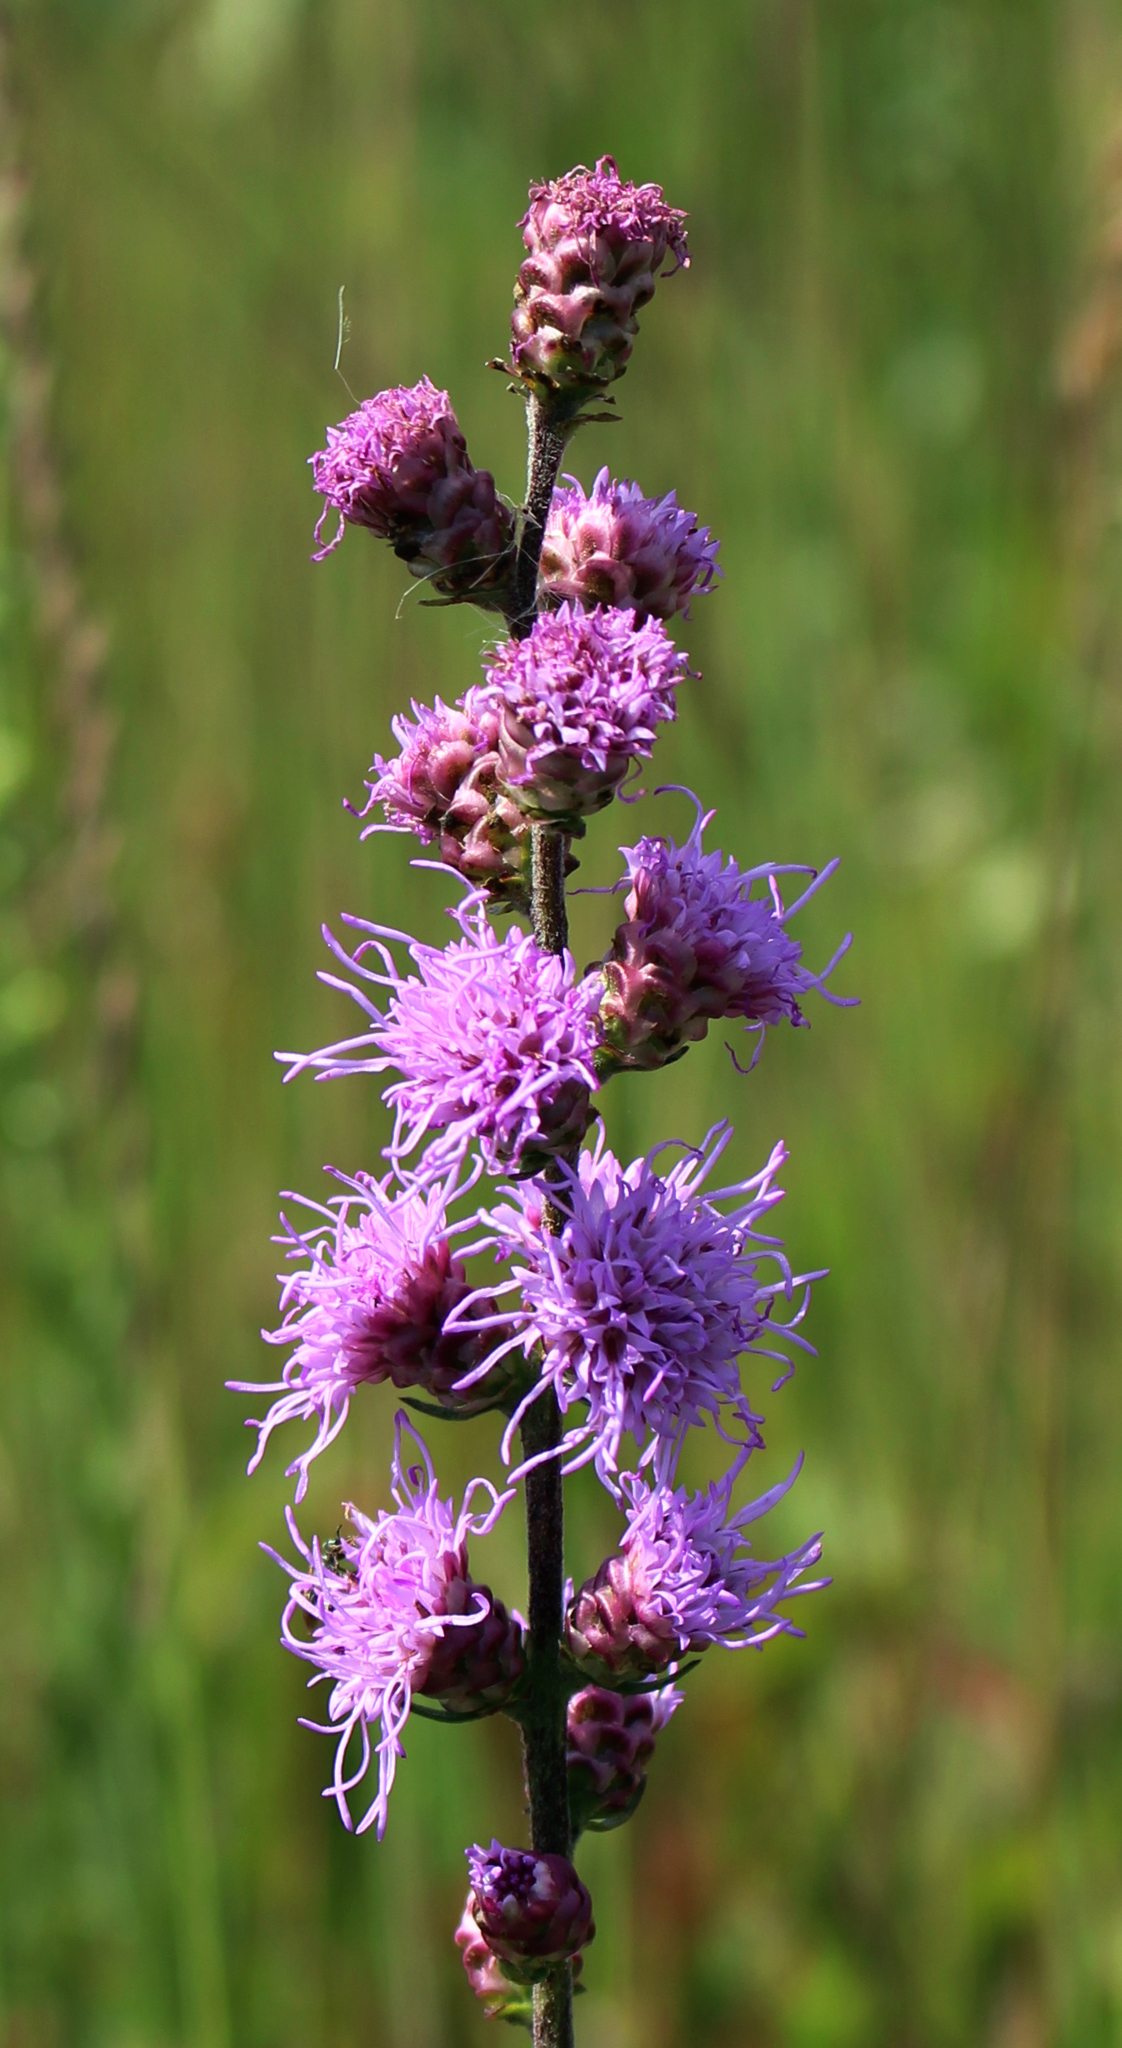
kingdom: Plantae
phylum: Tracheophyta
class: Magnoliopsida
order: Asterales
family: Asteraceae
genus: Liatris
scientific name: Liatris aspera
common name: Lacerate blazing-star
